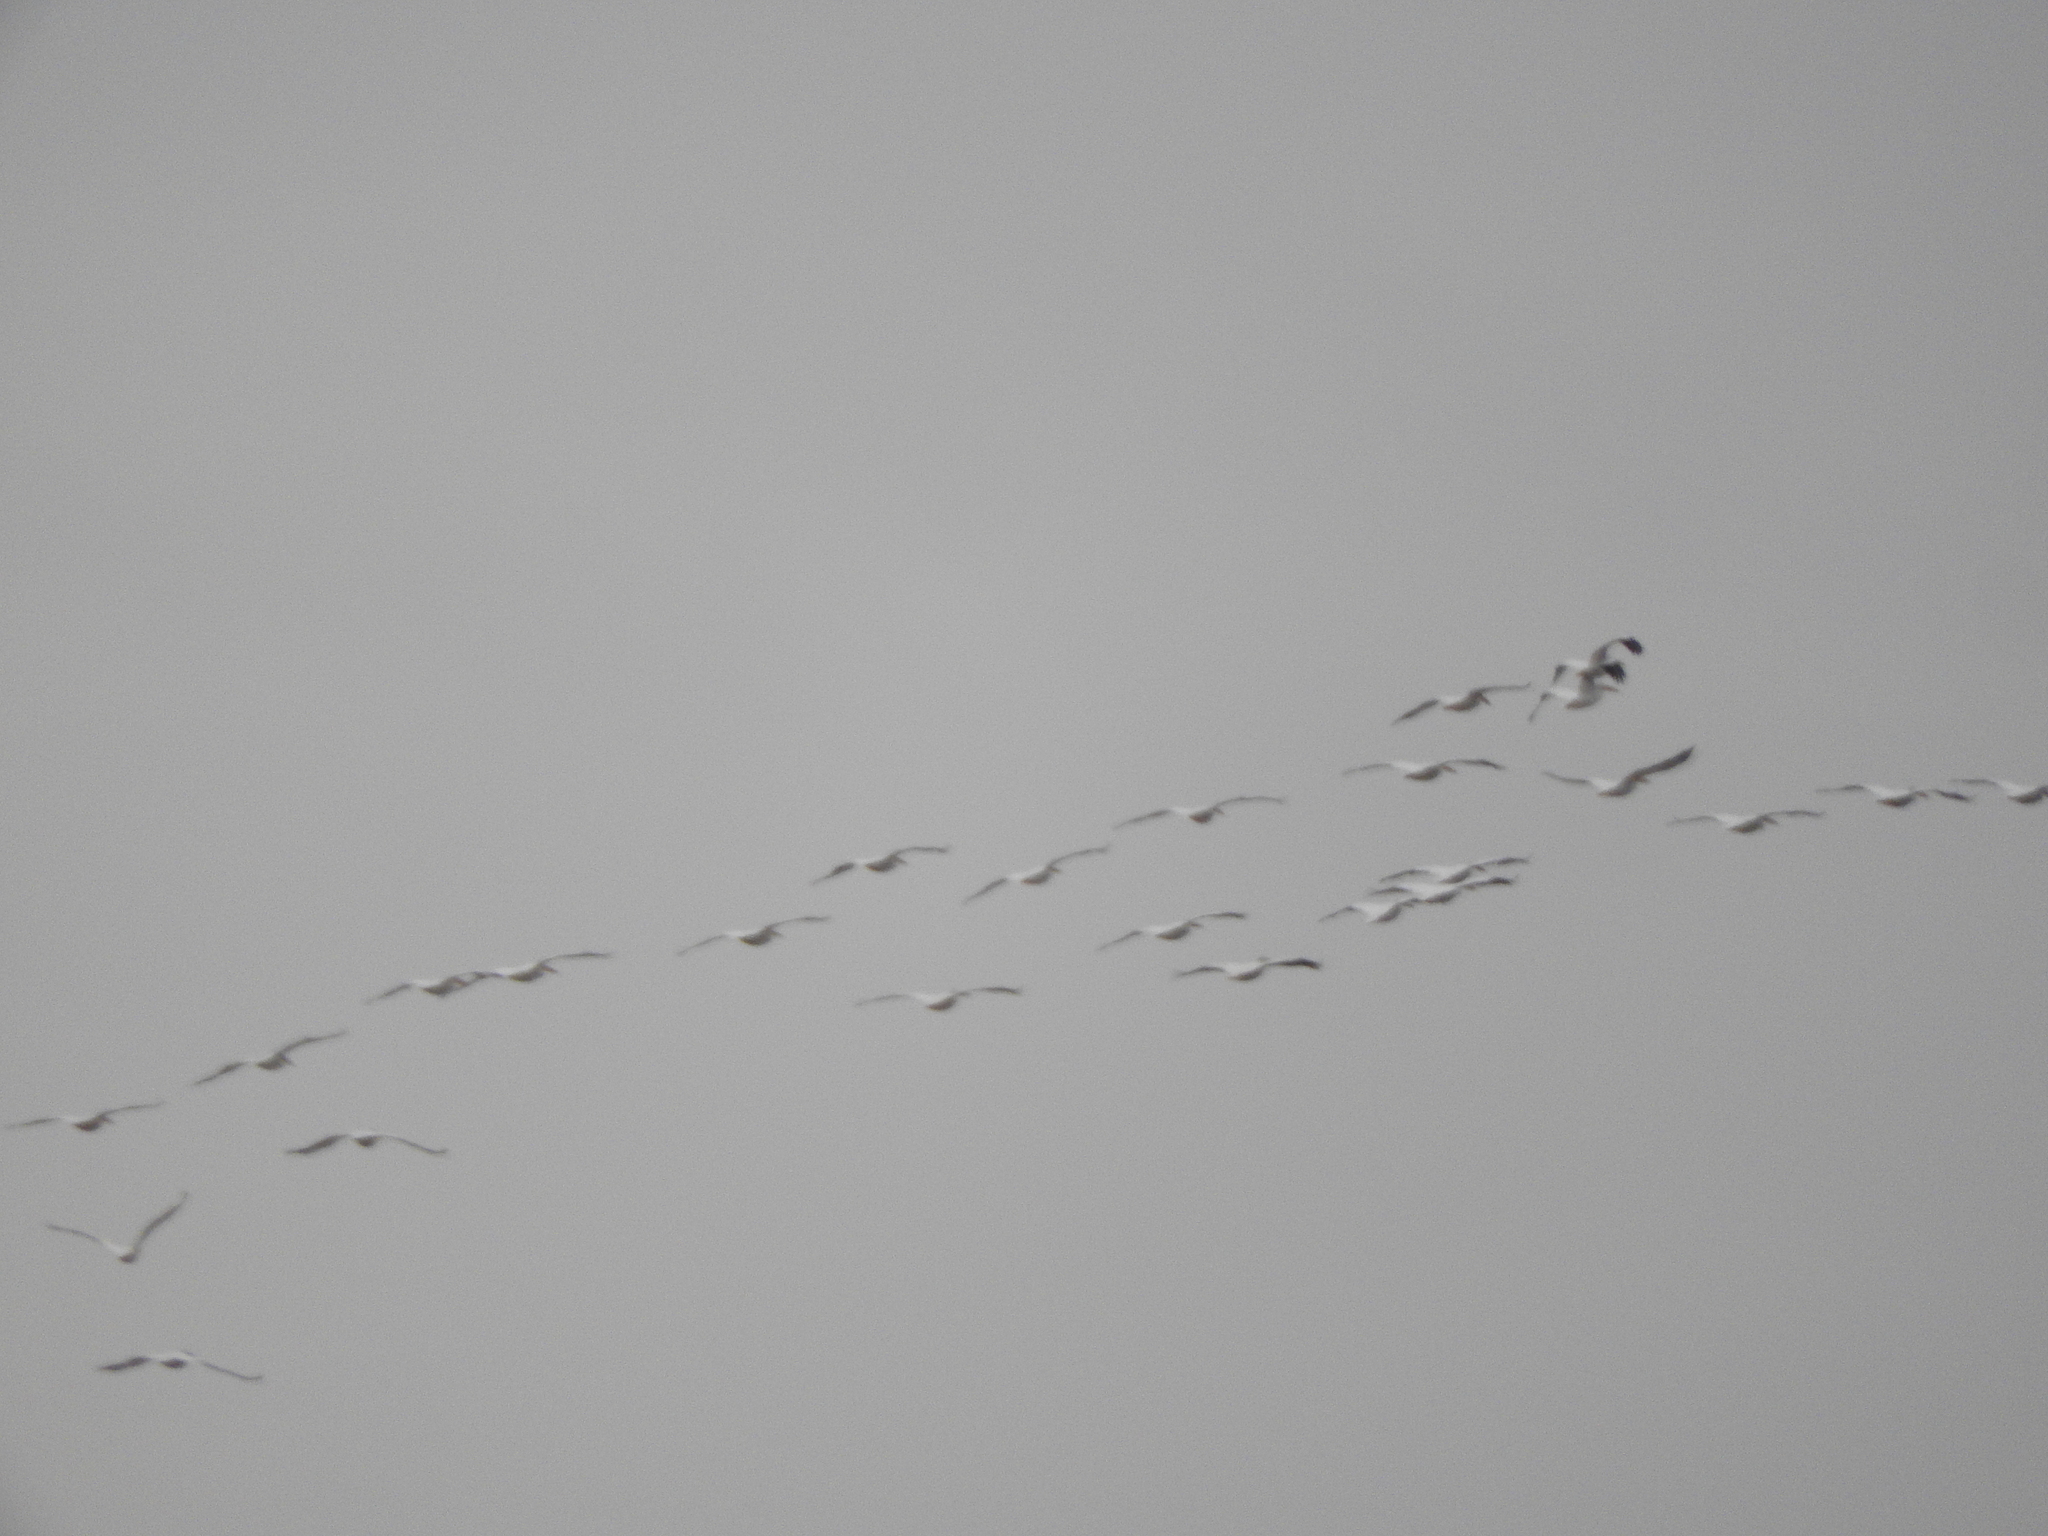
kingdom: Animalia
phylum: Chordata
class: Aves
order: Pelecaniformes
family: Pelecanidae
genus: Pelecanus
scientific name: Pelecanus erythrorhynchos
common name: American white pelican
